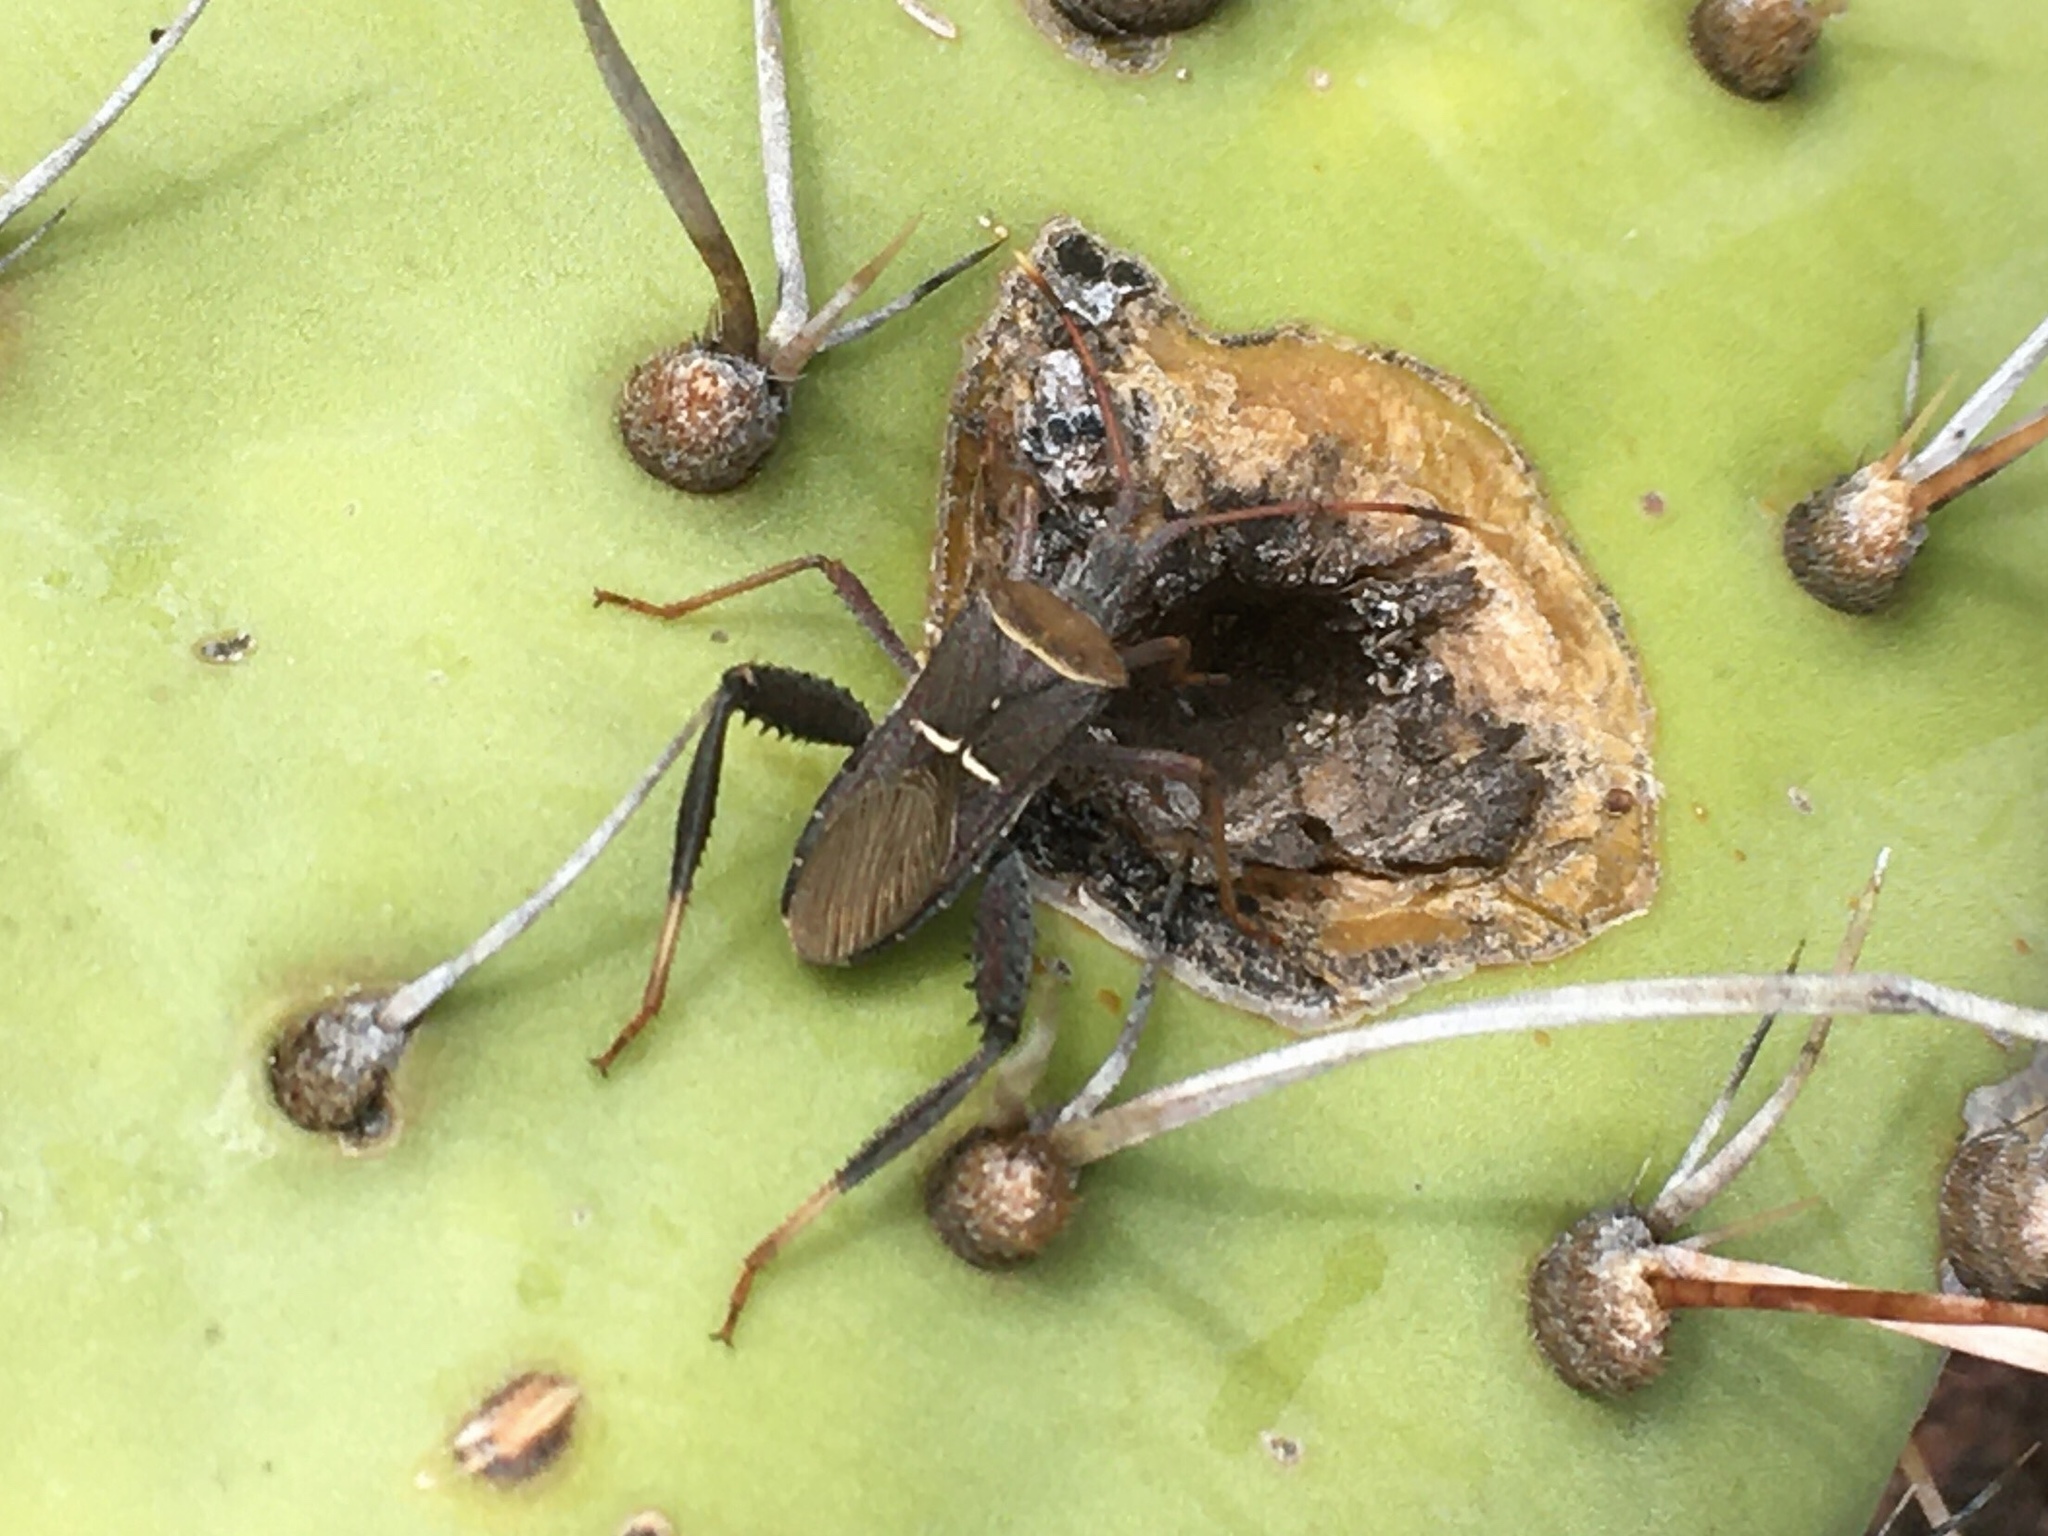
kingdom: Animalia
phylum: Arthropoda
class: Insecta
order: Hemiptera
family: Coreidae
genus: Leptoglossus
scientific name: Leptoglossus crassicornis
